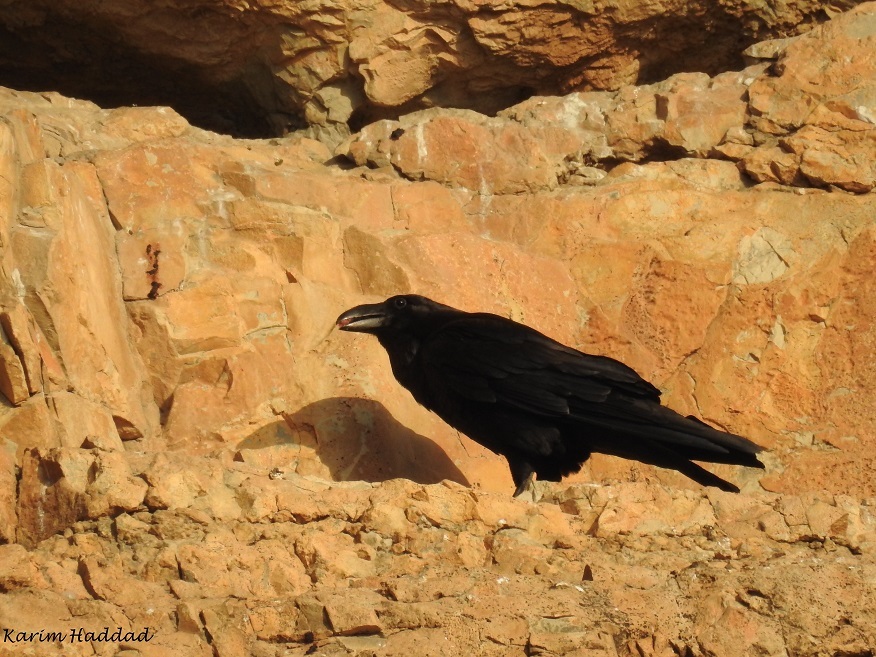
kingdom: Animalia
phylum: Chordata
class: Aves
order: Passeriformes
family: Corvidae
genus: Corvus
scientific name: Corvus corax
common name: Common raven
